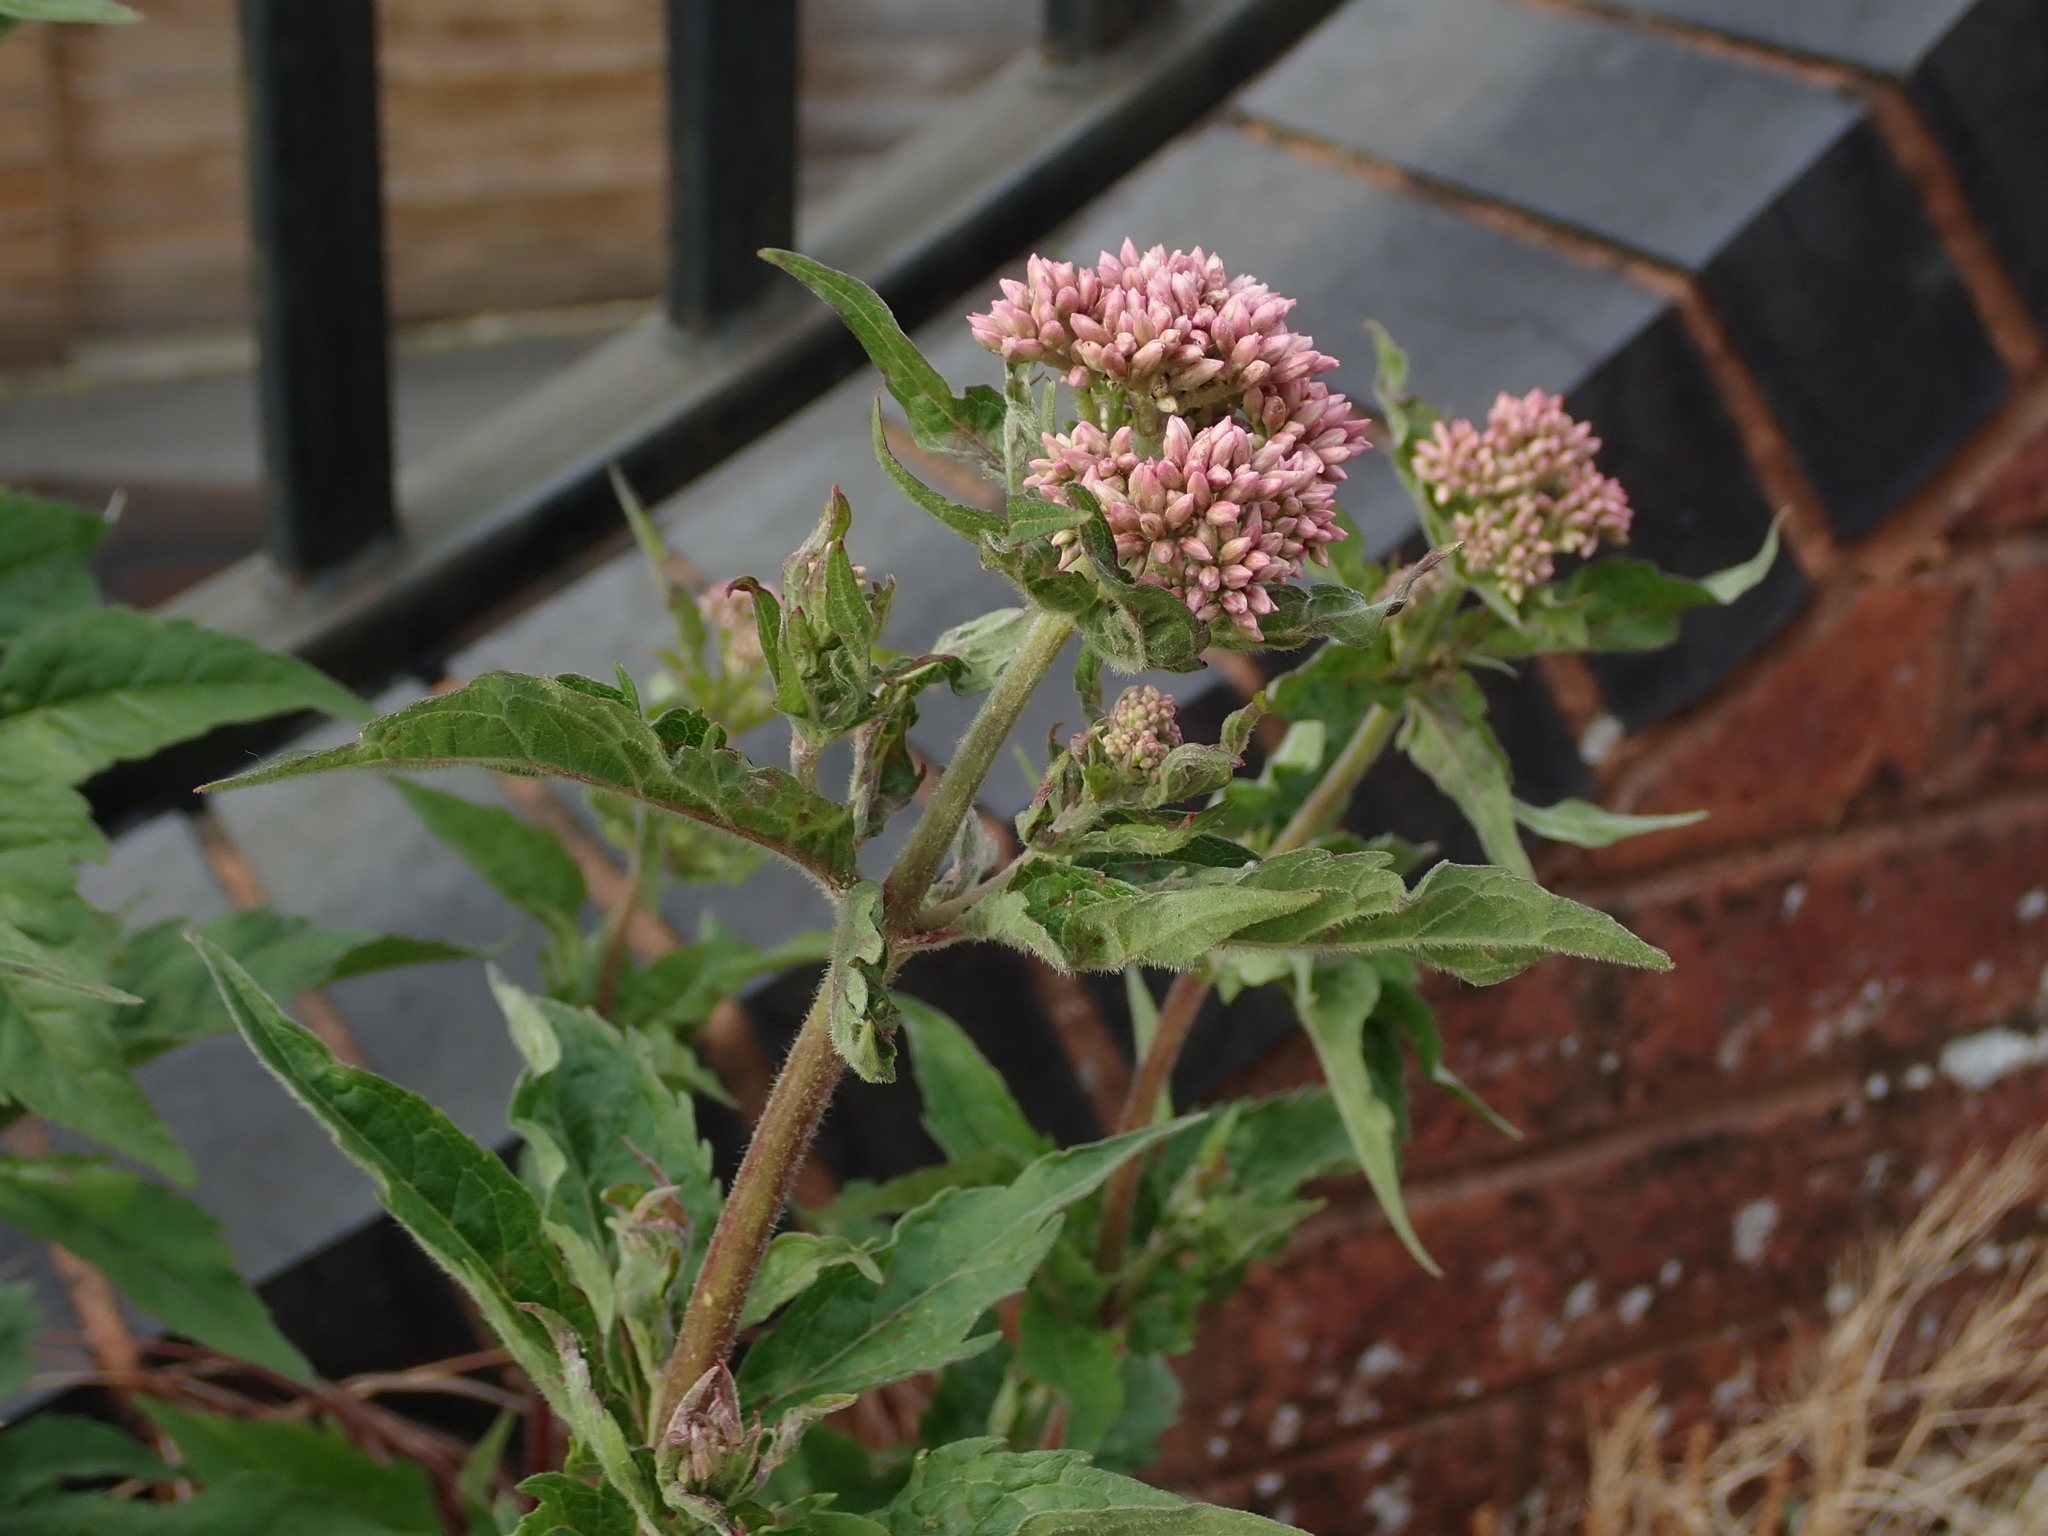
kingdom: Plantae
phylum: Tracheophyta
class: Magnoliopsida
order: Asterales
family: Asteraceae
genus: Eupatorium
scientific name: Eupatorium cannabinum
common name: Hemp-agrimony
